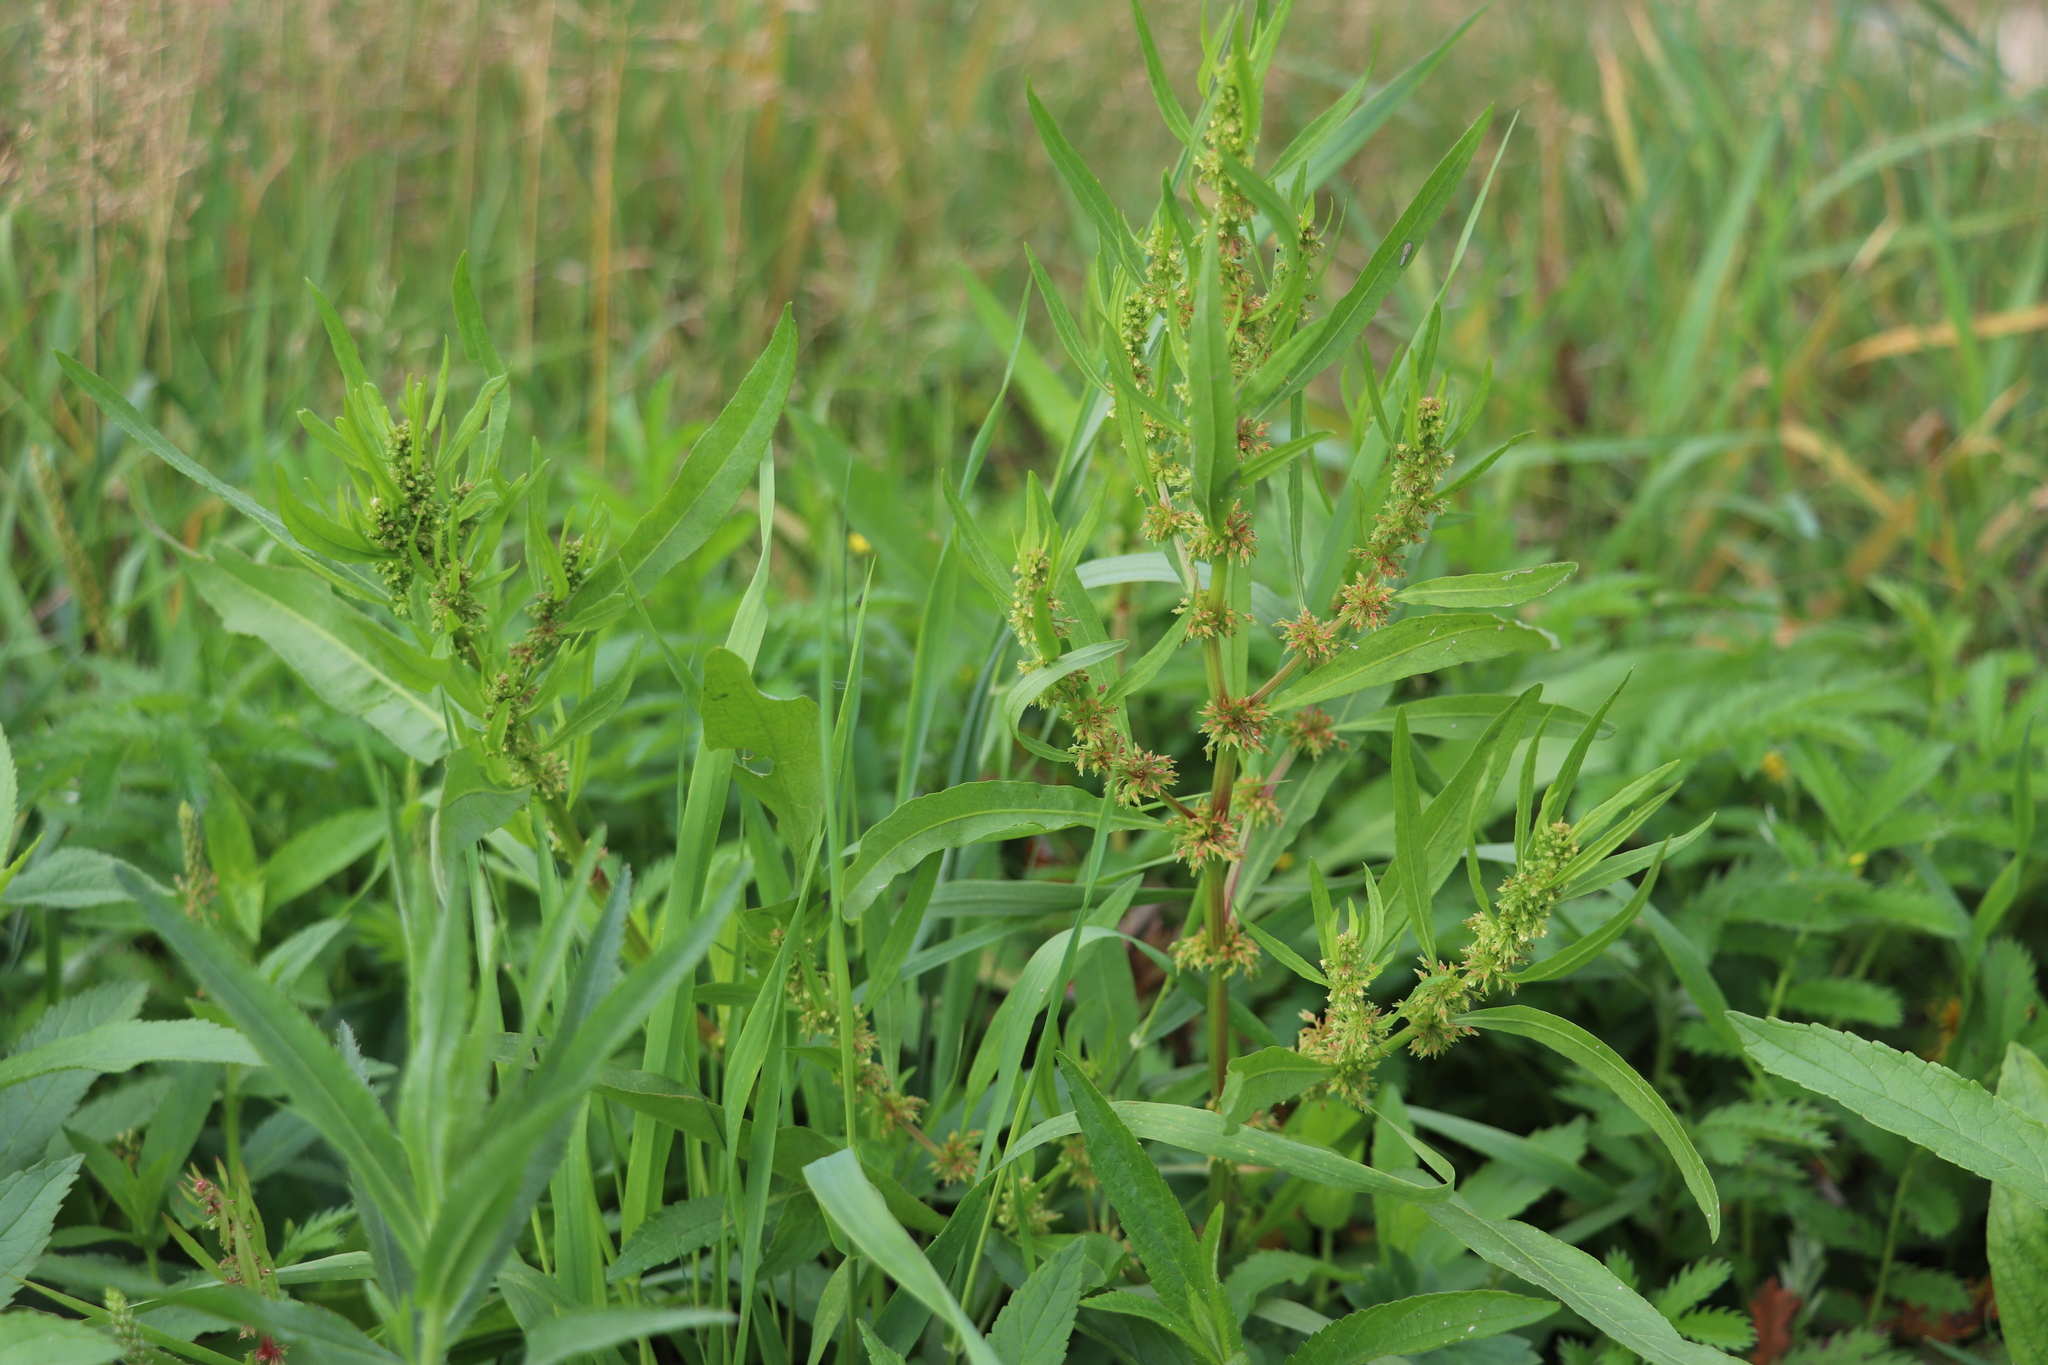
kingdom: Plantae
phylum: Tracheophyta
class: Magnoliopsida
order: Caryophyllales
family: Polygonaceae
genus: Rumex
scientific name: Rumex maritimus
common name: Golden dock
